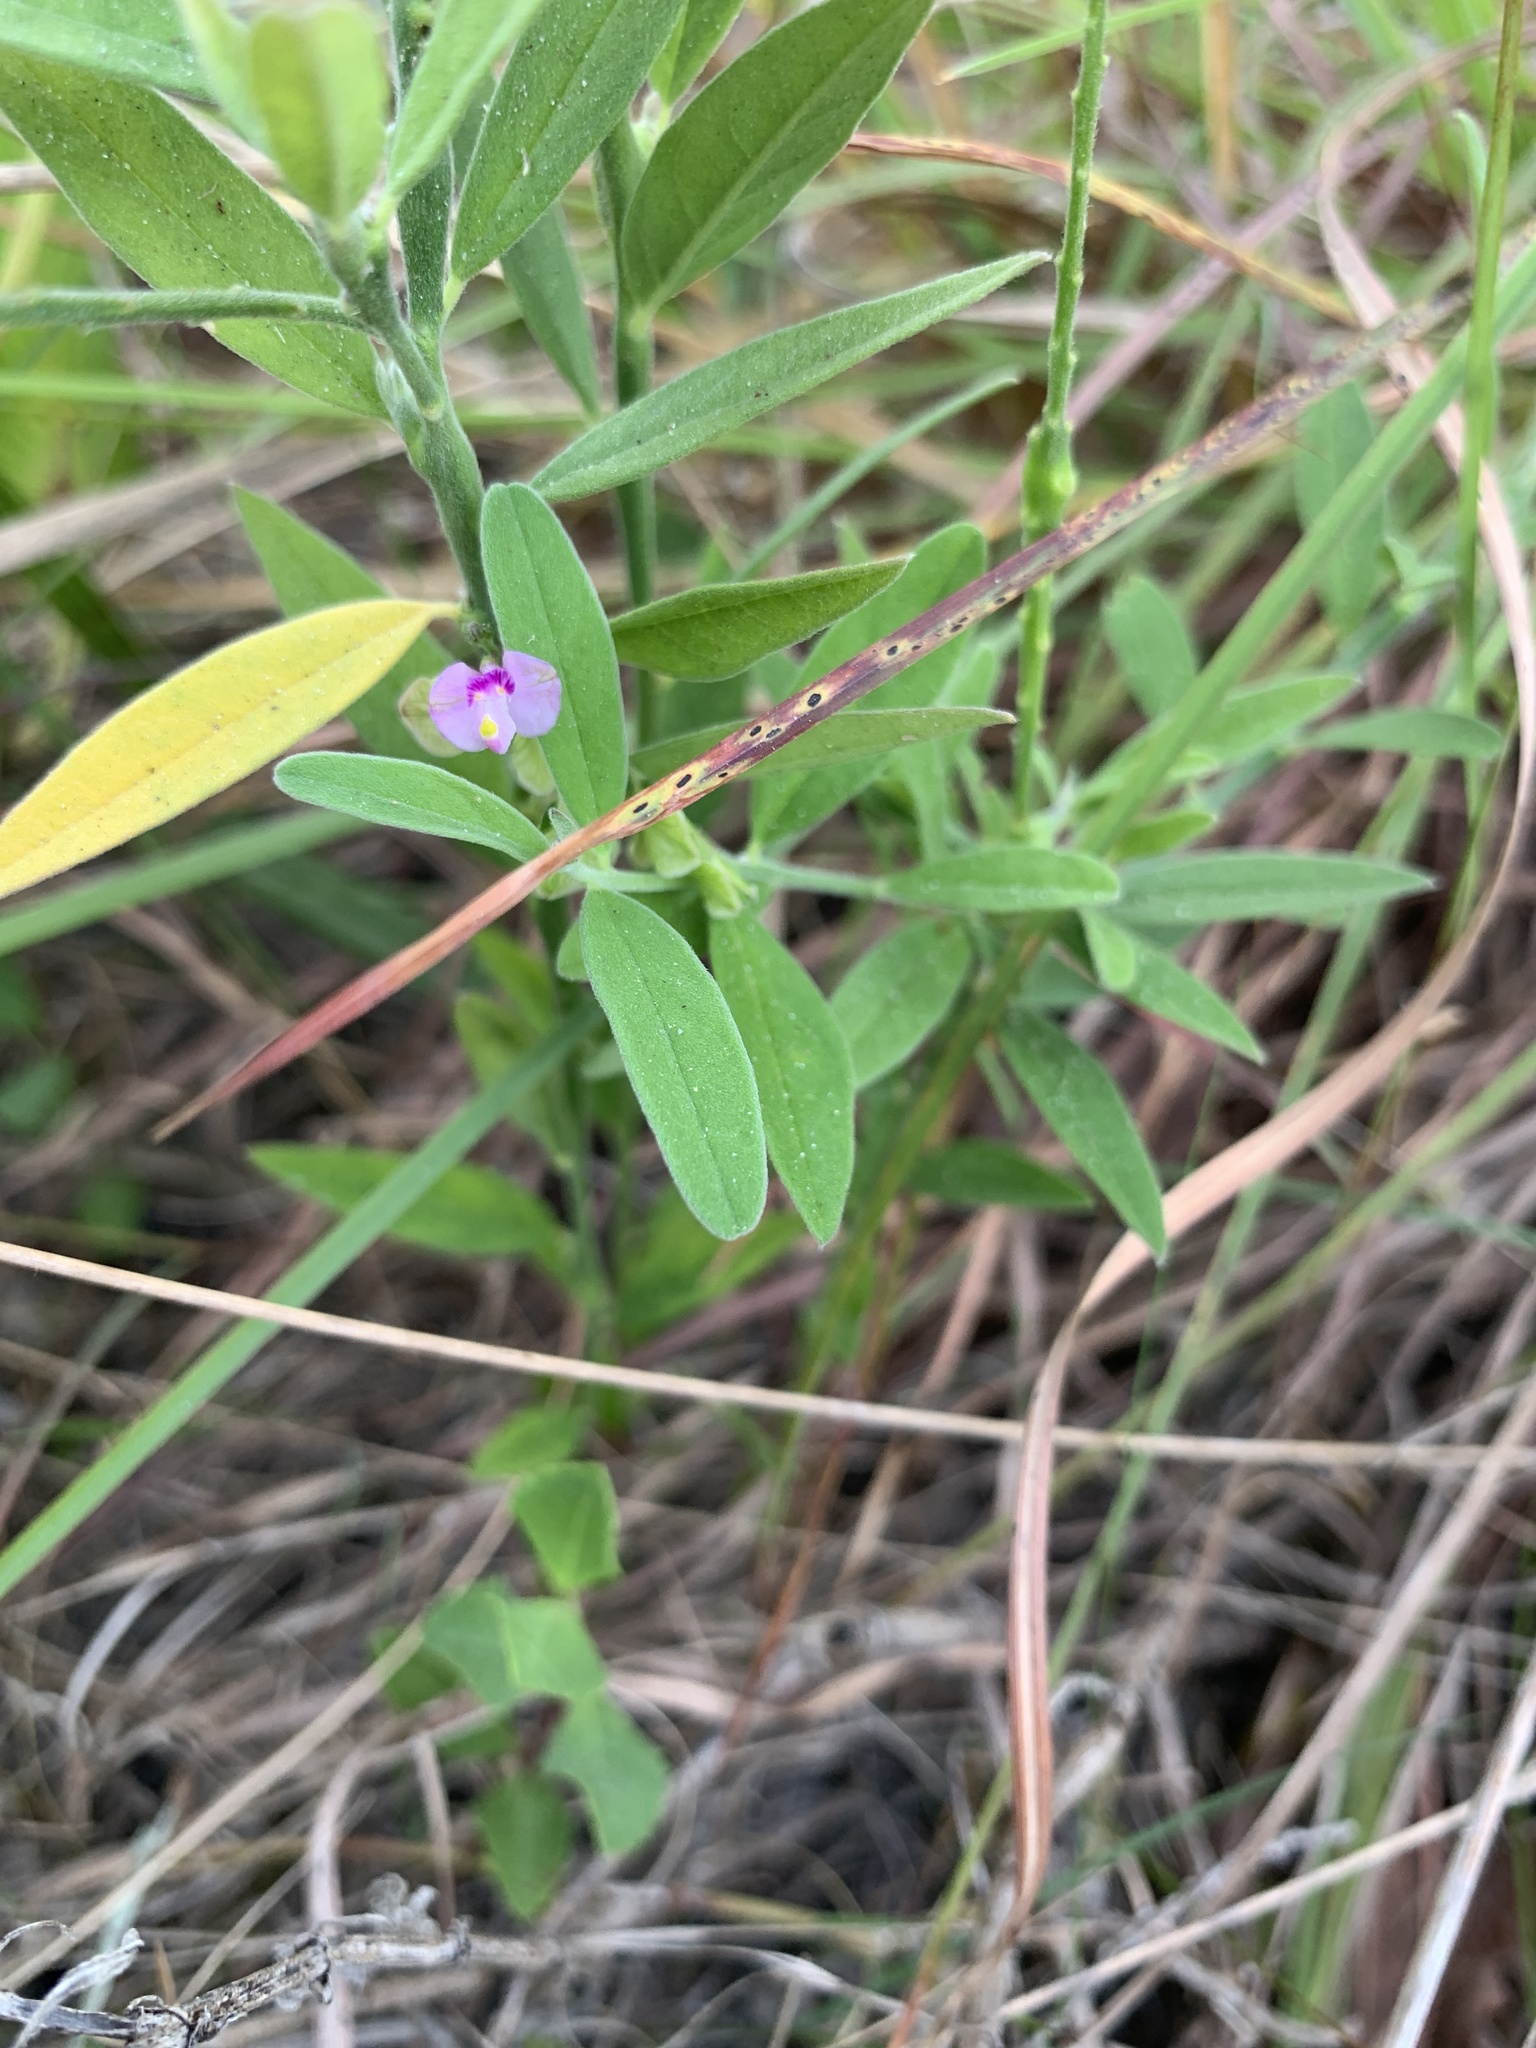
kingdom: Plantae
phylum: Tracheophyta
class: Magnoliopsida
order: Fabales
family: Polygalaceae
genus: Asemeia
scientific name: Asemeia grandiflora
